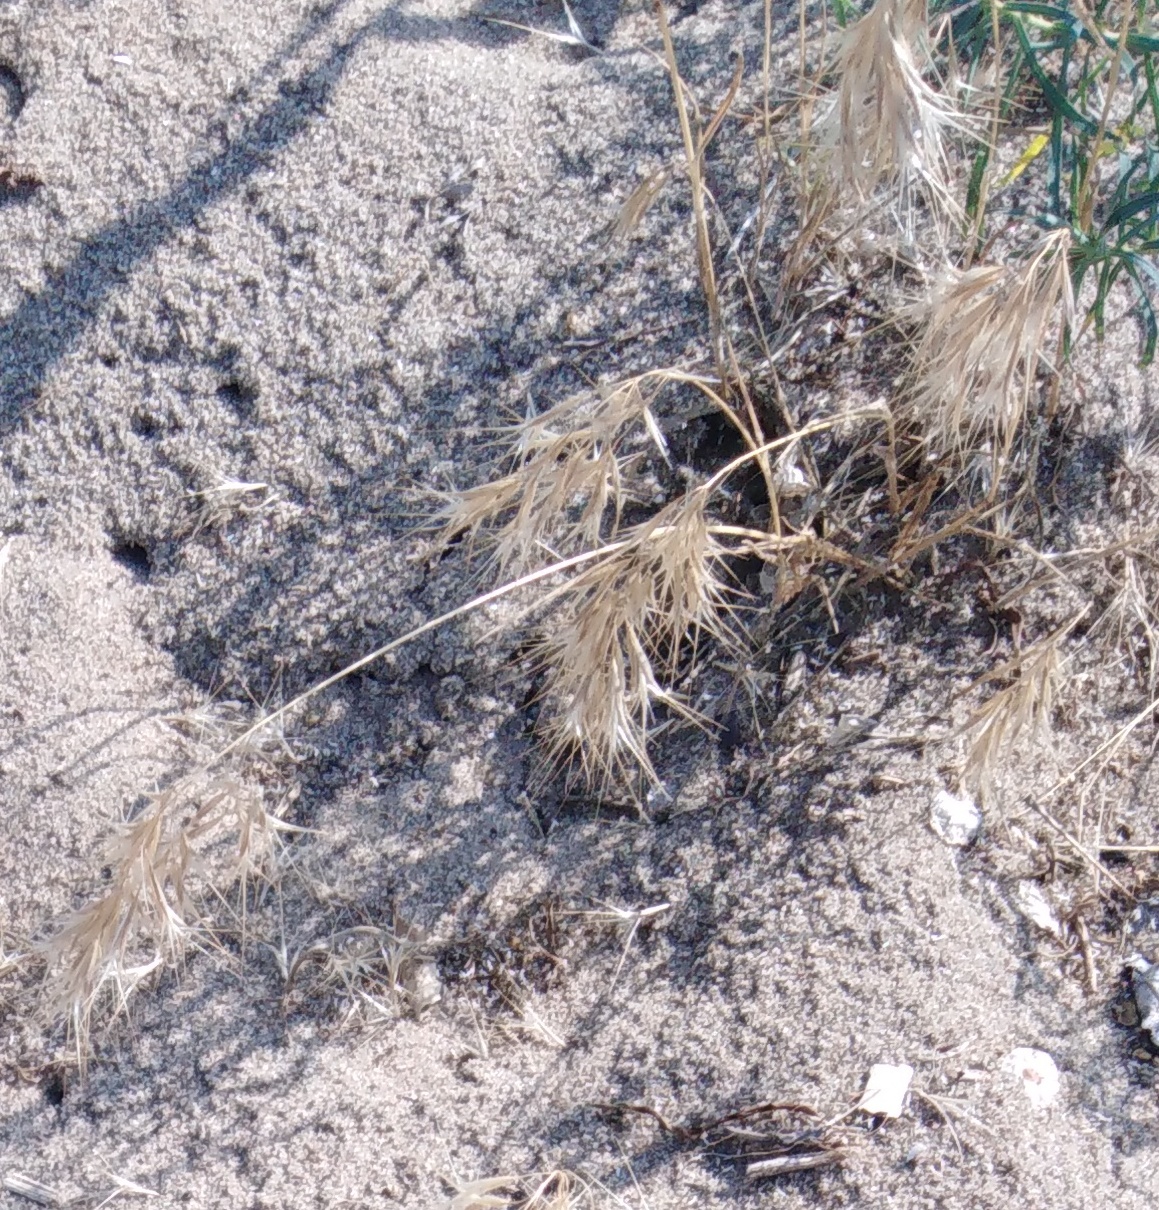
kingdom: Plantae
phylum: Tracheophyta
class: Liliopsida
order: Poales
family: Poaceae
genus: Bromus
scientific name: Bromus tectorum
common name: Cheatgrass
